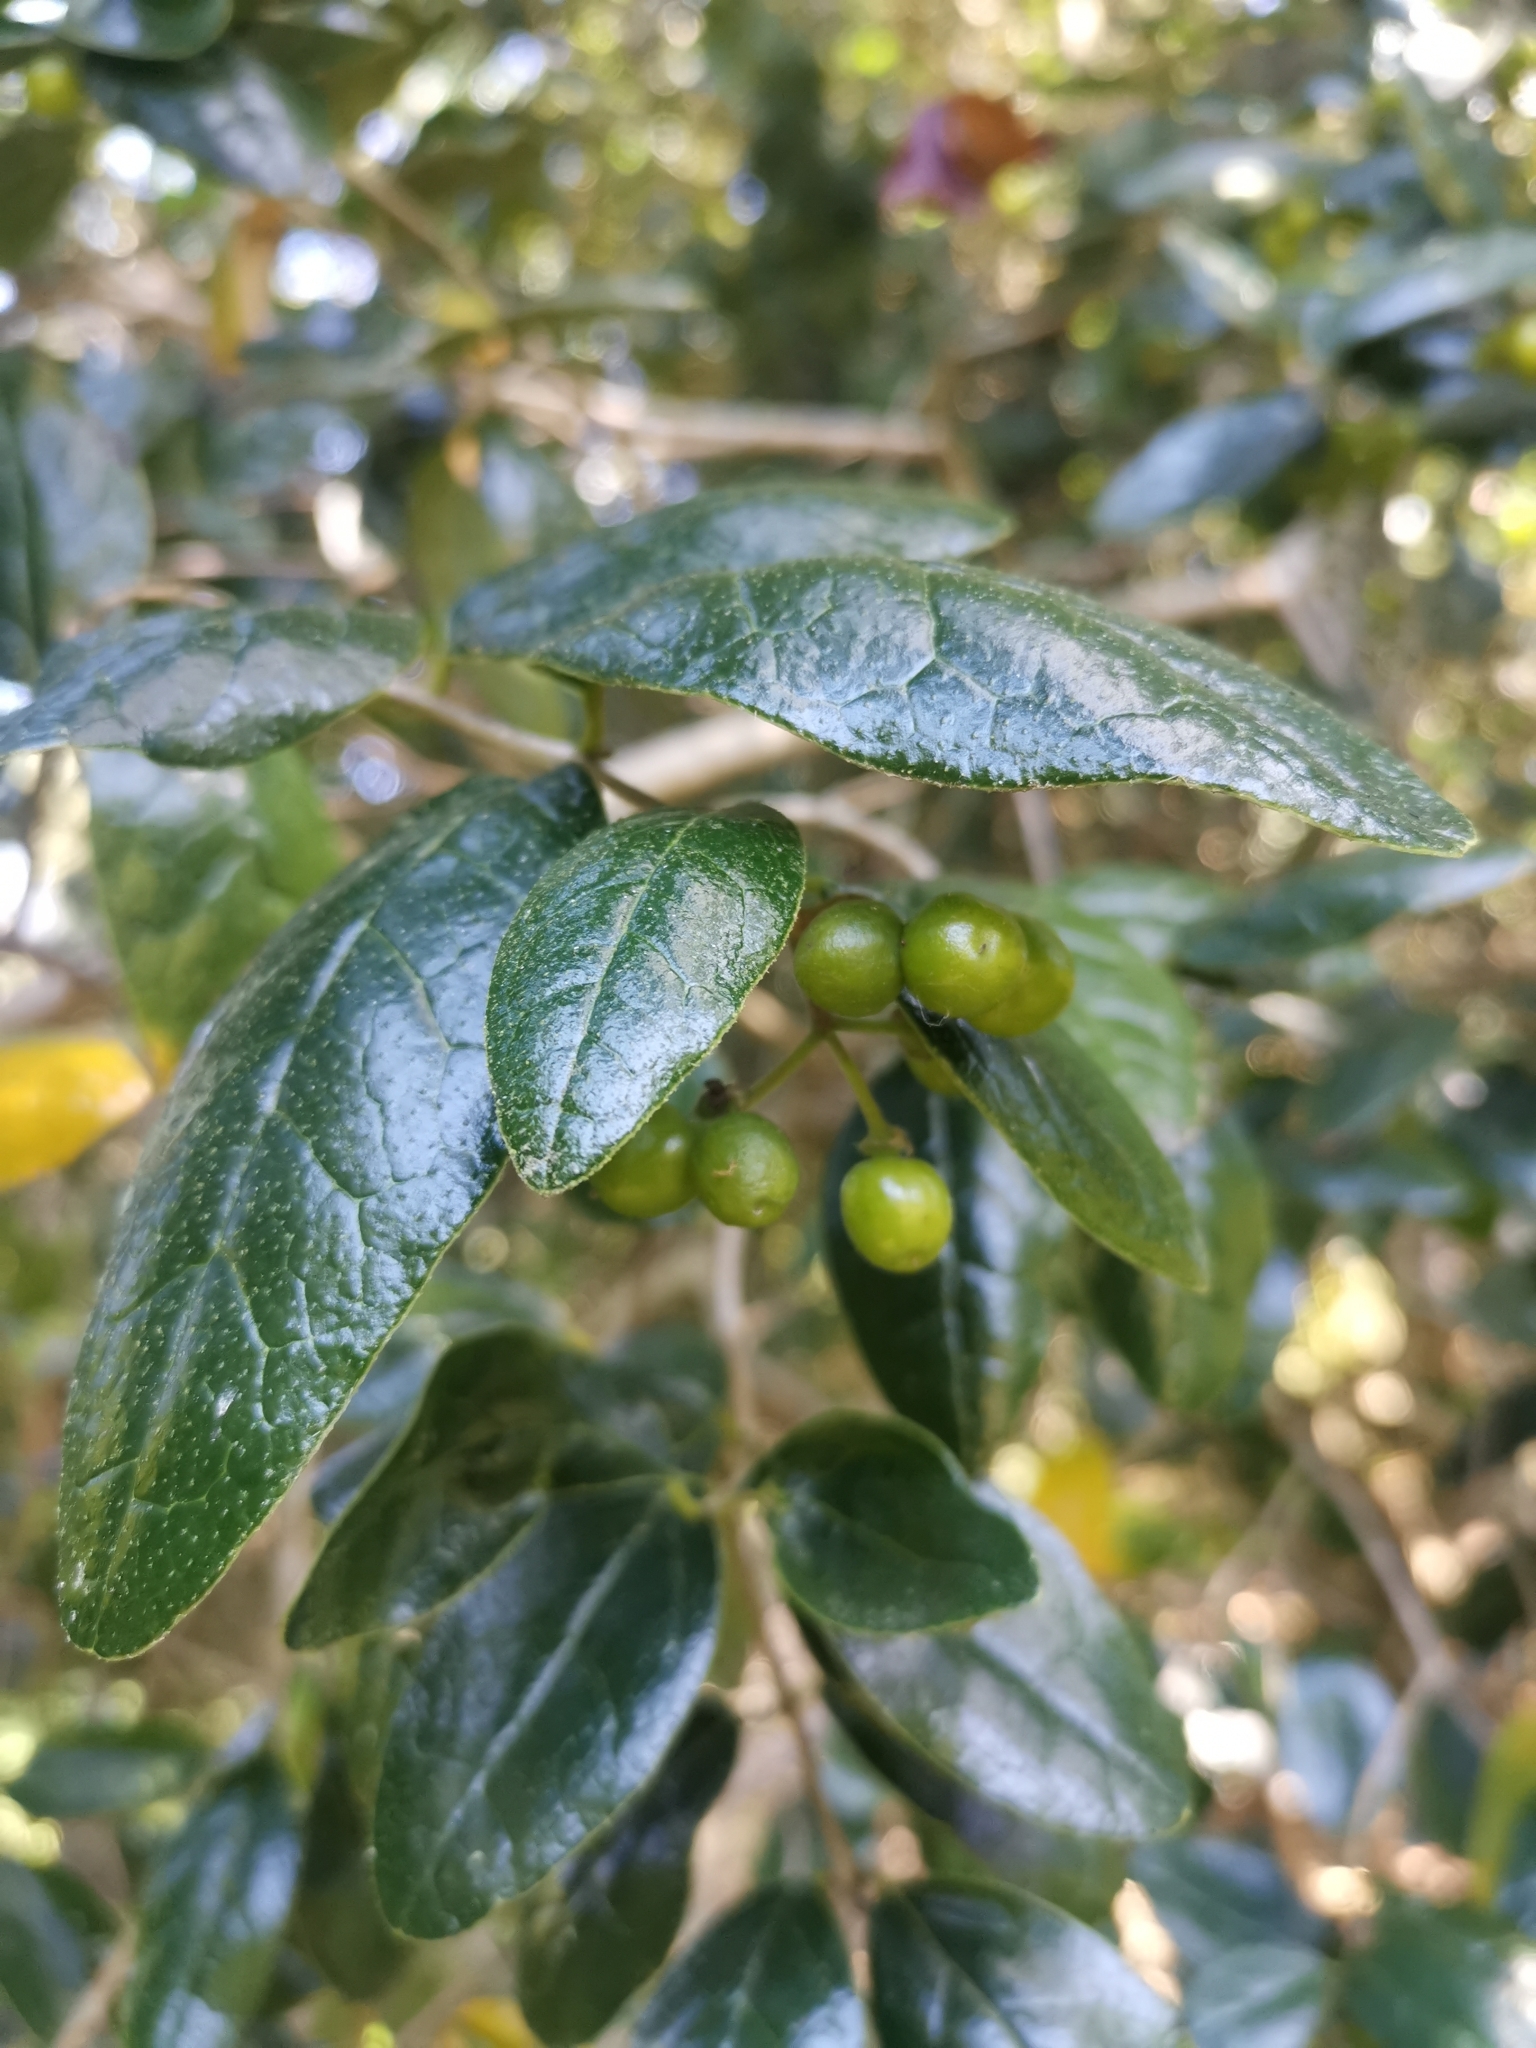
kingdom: Plantae
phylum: Tracheophyta
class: Magnoliopsida
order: Laurales
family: Monimiaceae
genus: Peumus
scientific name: Peumus boldus
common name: Boldo
